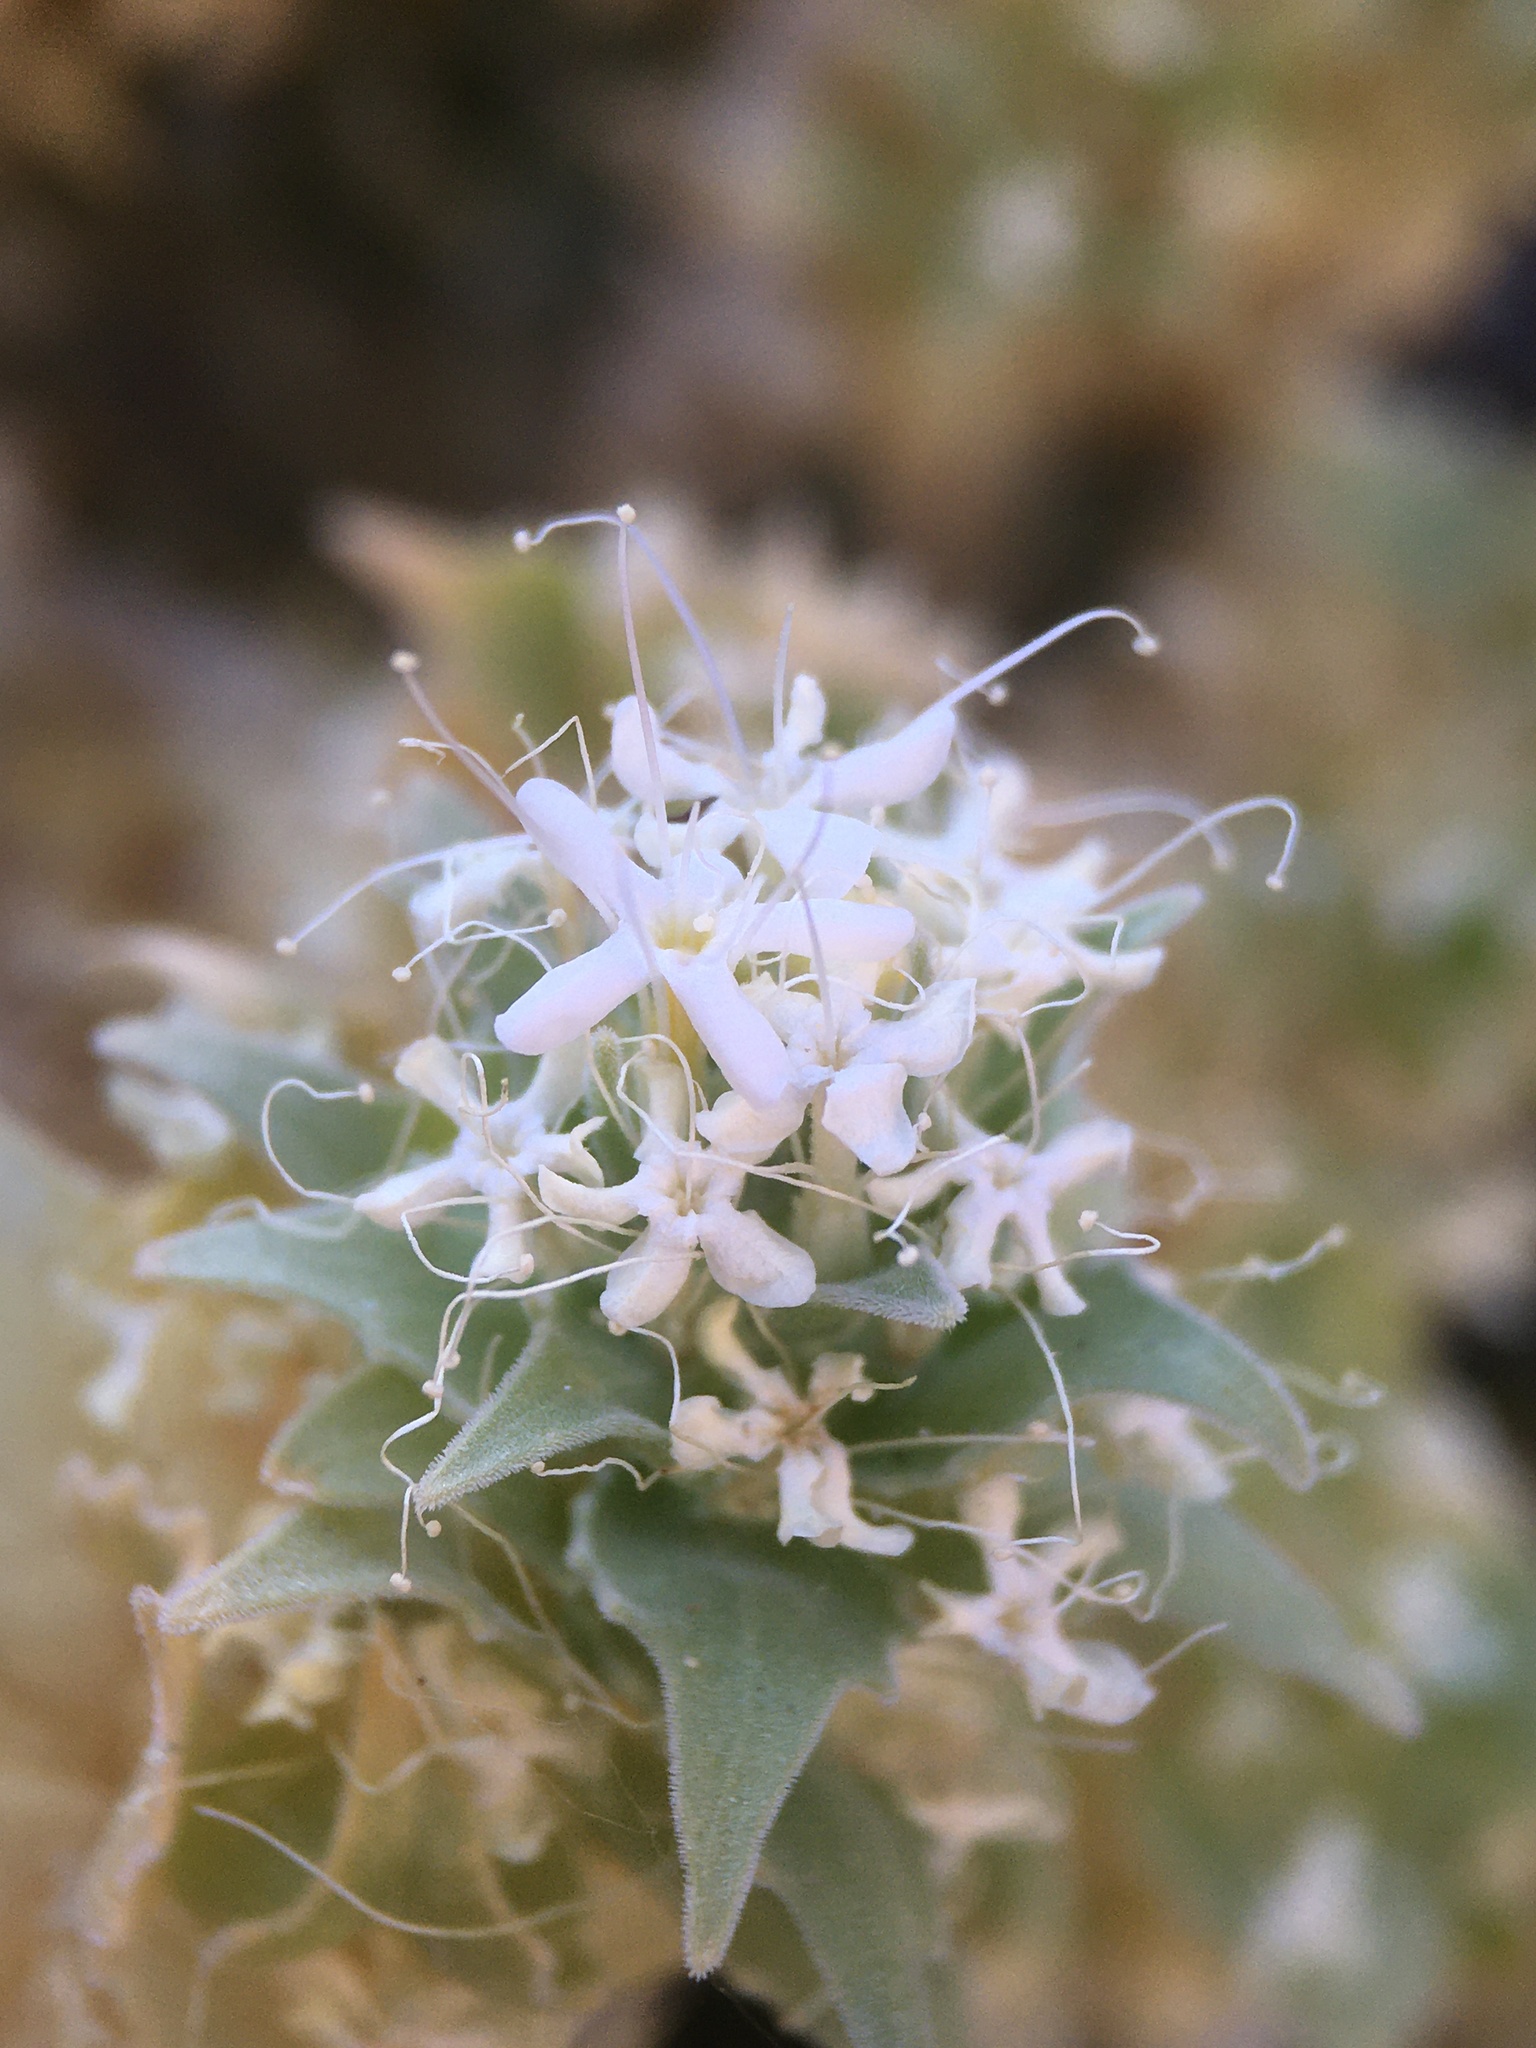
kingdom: Plantae
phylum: Tracheophyta
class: Magnoliopsida
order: Cornales
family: Loasaceae
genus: Petalonyx
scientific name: Petalonyx nitidus
